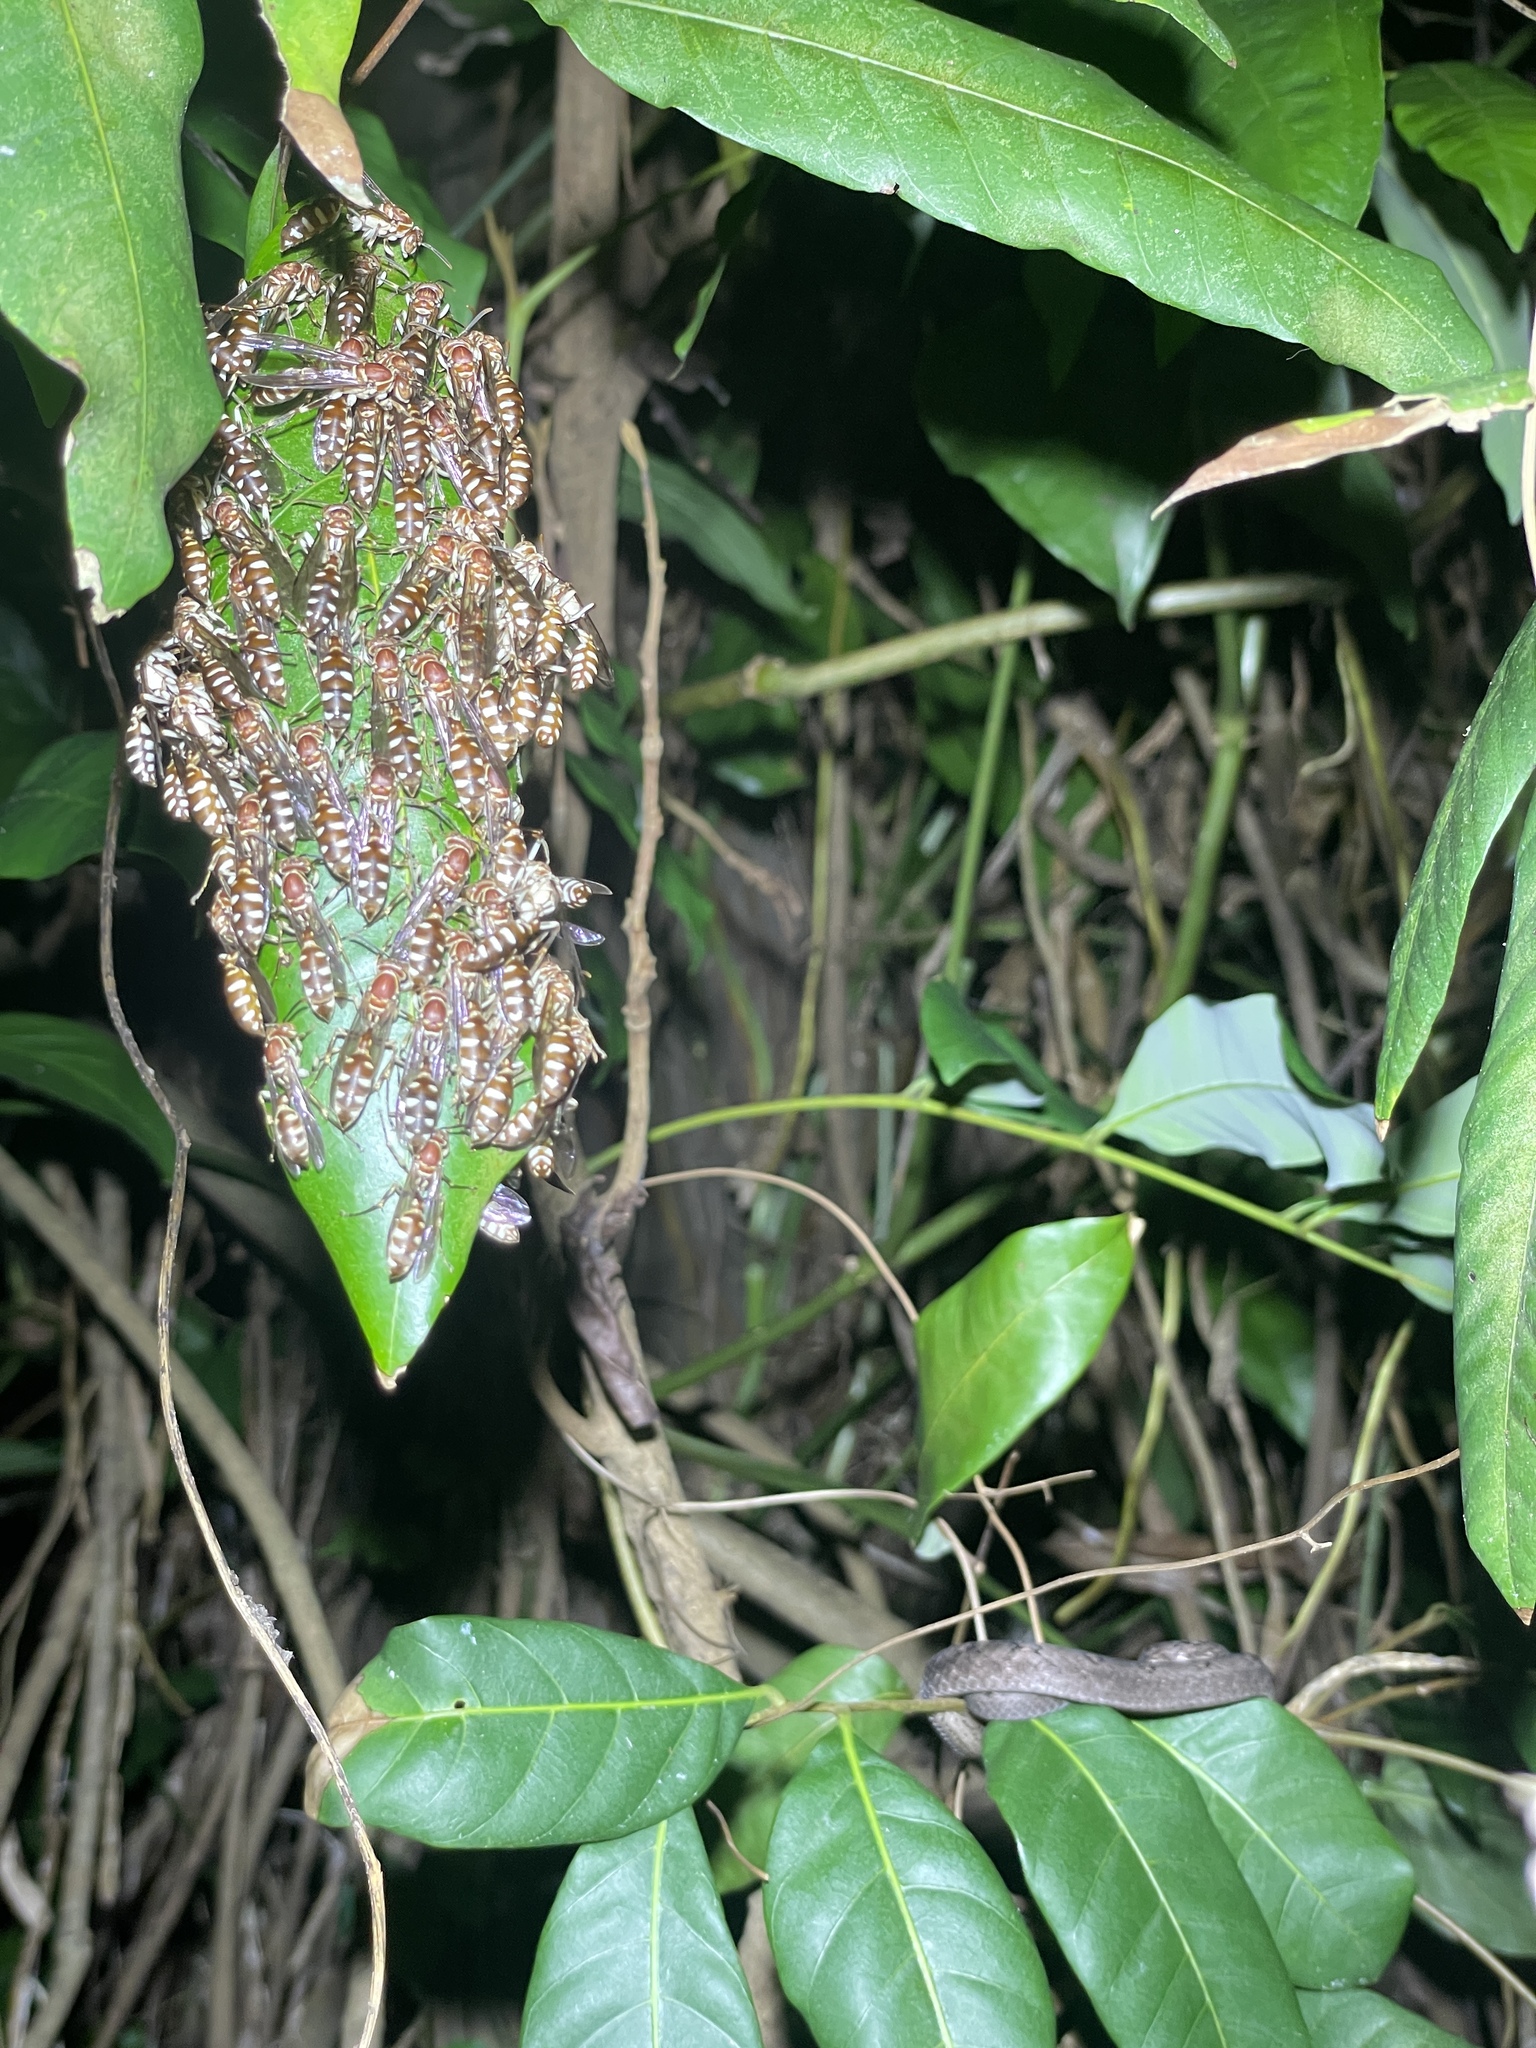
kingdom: Animalia
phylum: Arthropoda
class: Insecta
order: Hymenoptera
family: Vespidae
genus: Parapolybia
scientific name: Parapolybia nodosa
